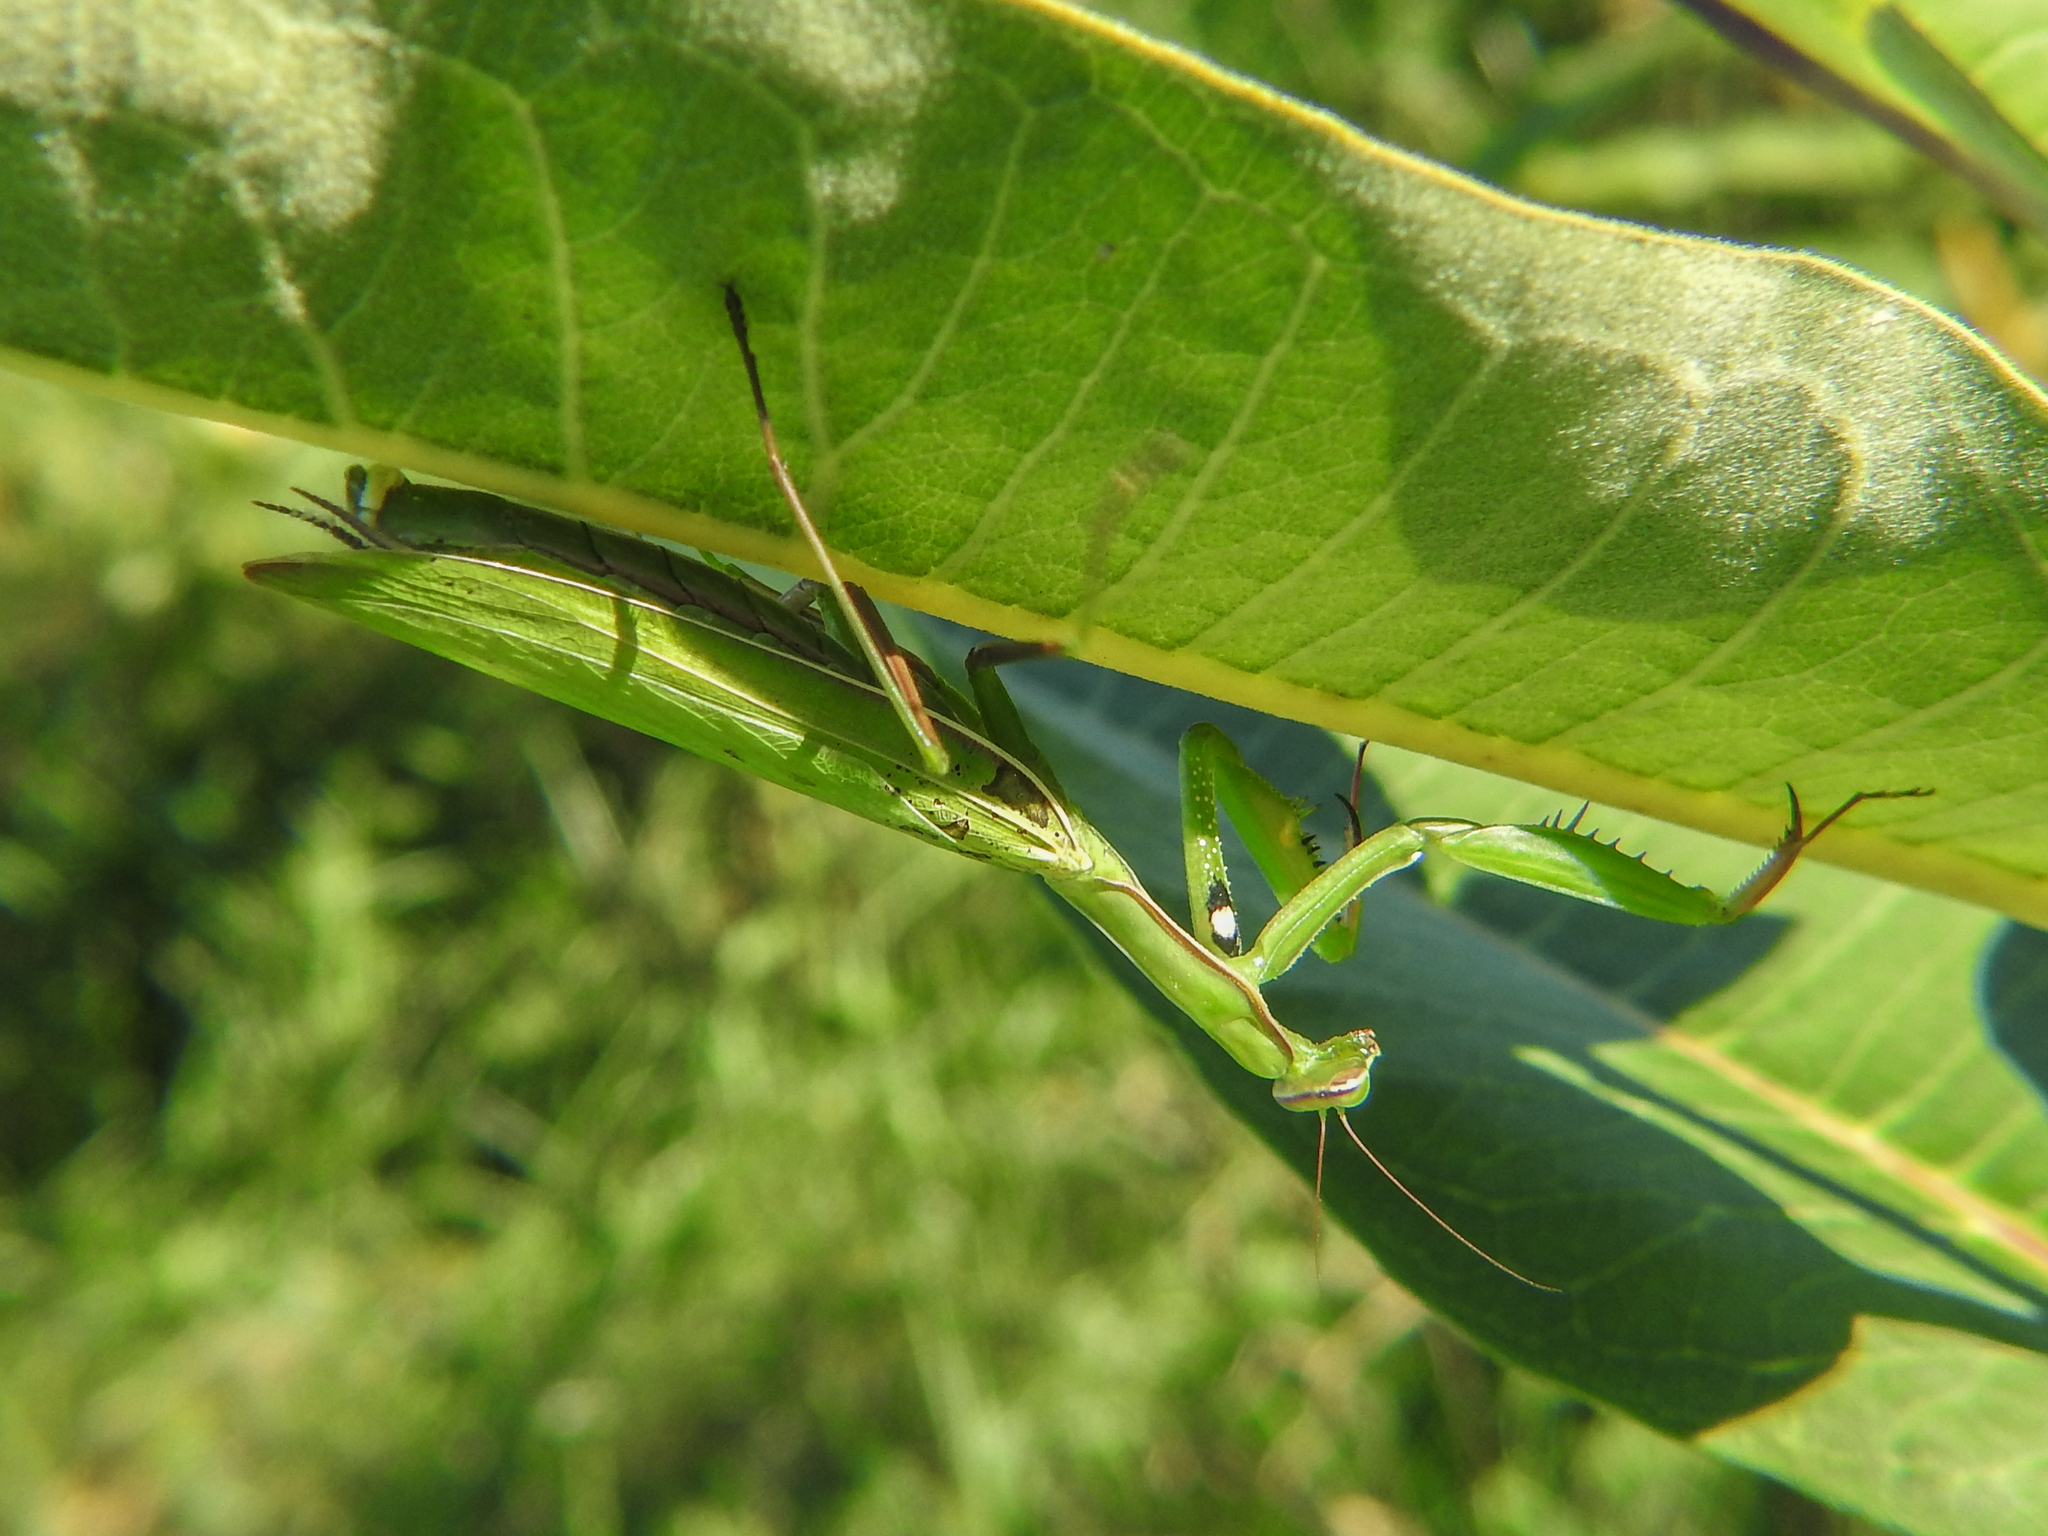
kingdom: Animalia
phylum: Arthropoda
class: Insecta
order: Mantodea
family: Mantidae
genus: Mantis
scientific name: Mantis religiosa
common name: Praying mantis
